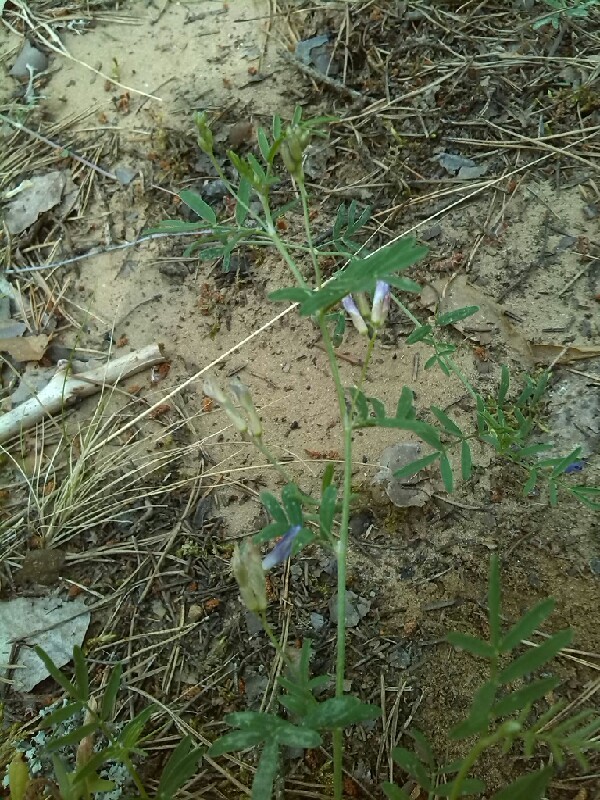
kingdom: Plantae
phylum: Tracheophyta
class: Magnoliopsida
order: Fabales
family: Fabaceae
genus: Astragalus
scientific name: Astragalus arenarius
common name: Arenarious milk-vetch
